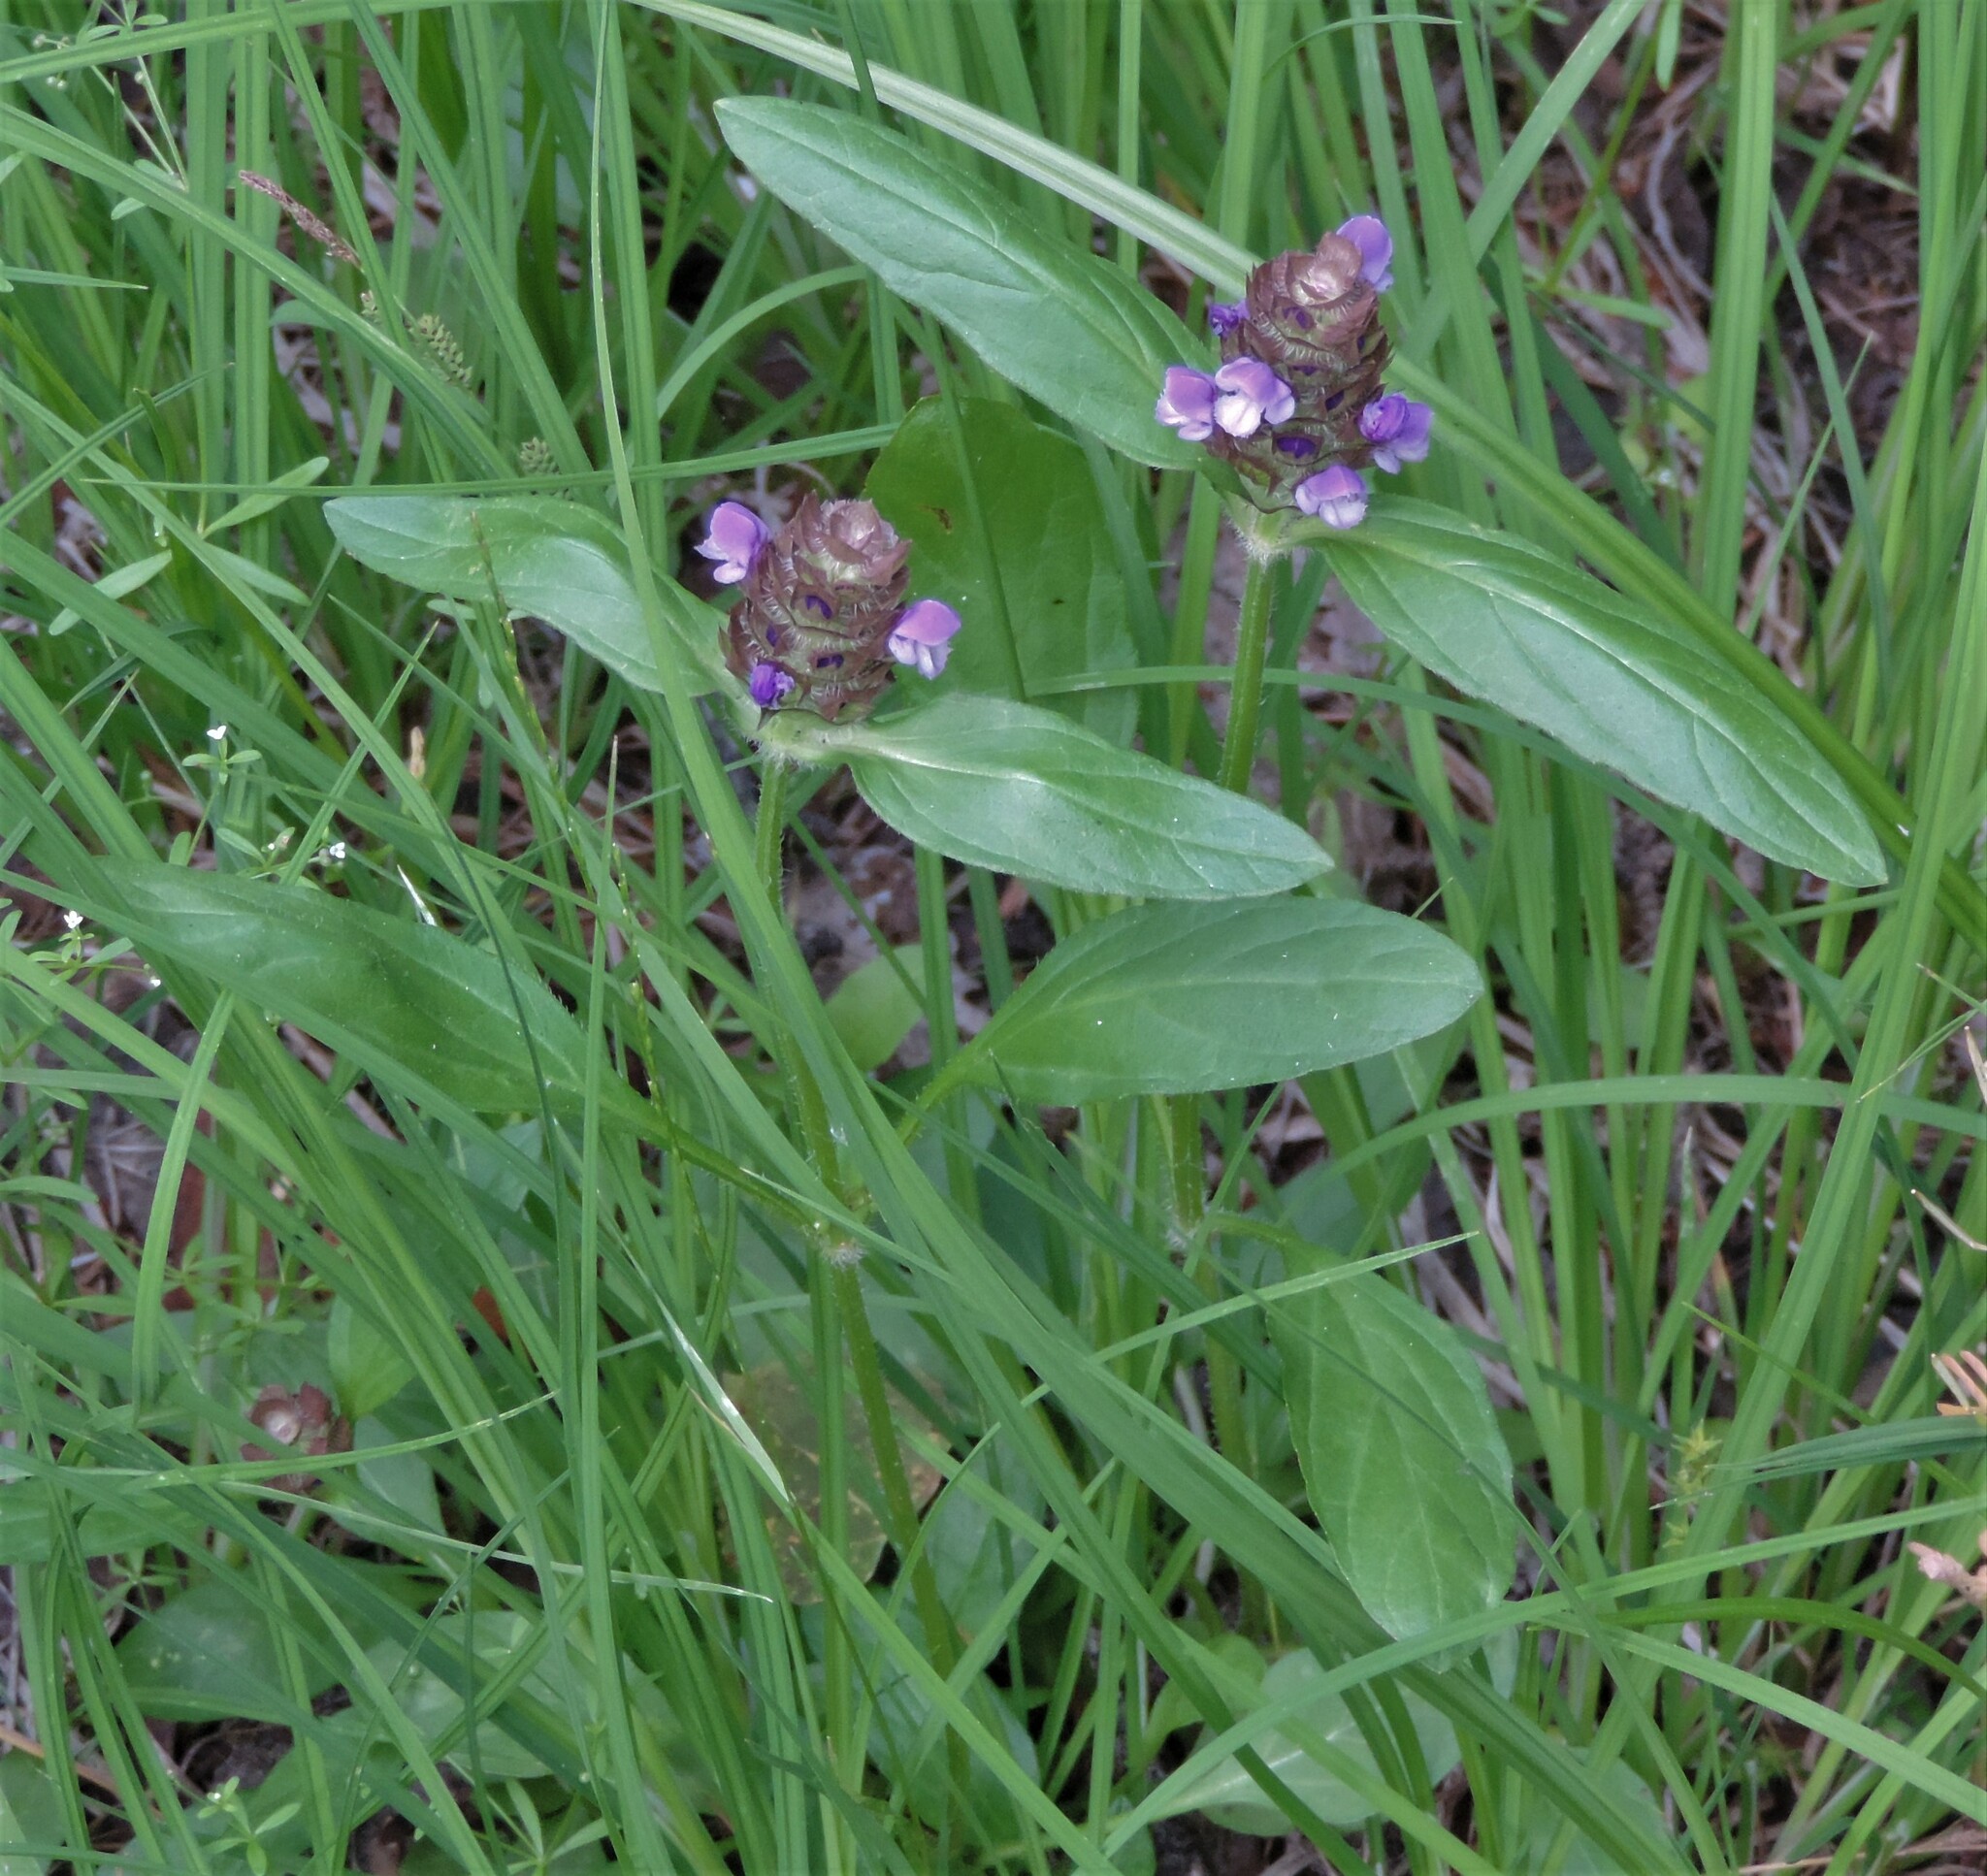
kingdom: Plantae
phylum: Tracheophyta
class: Magnoliopsida
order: Lamiales
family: Lamiaceae
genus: Prunella
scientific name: Prunella vulgaris
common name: Heal-all
